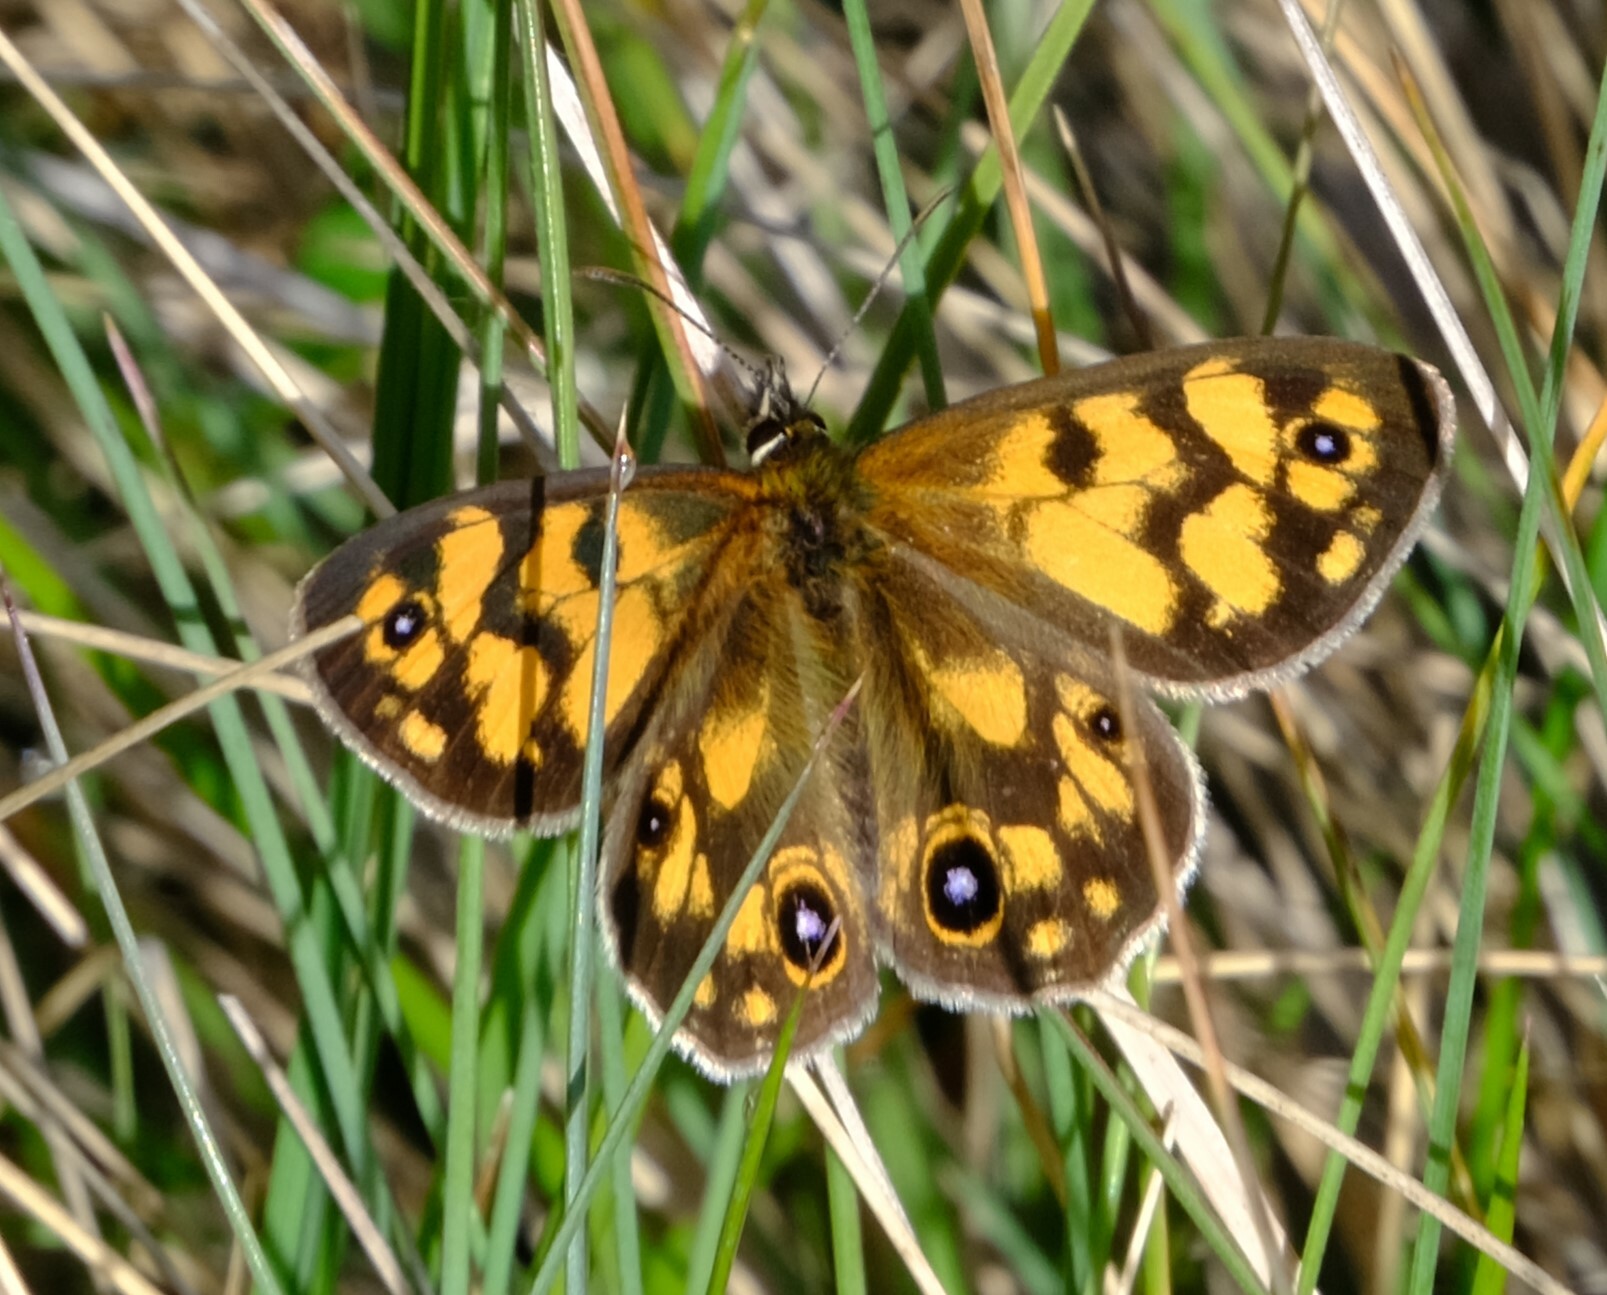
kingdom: Animalia
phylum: Arthropoda
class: Insecta
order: Lepidoptera
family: Nymphalidae
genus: Heteronympha
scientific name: Heteronympha cordace
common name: Bright-eyed brown
